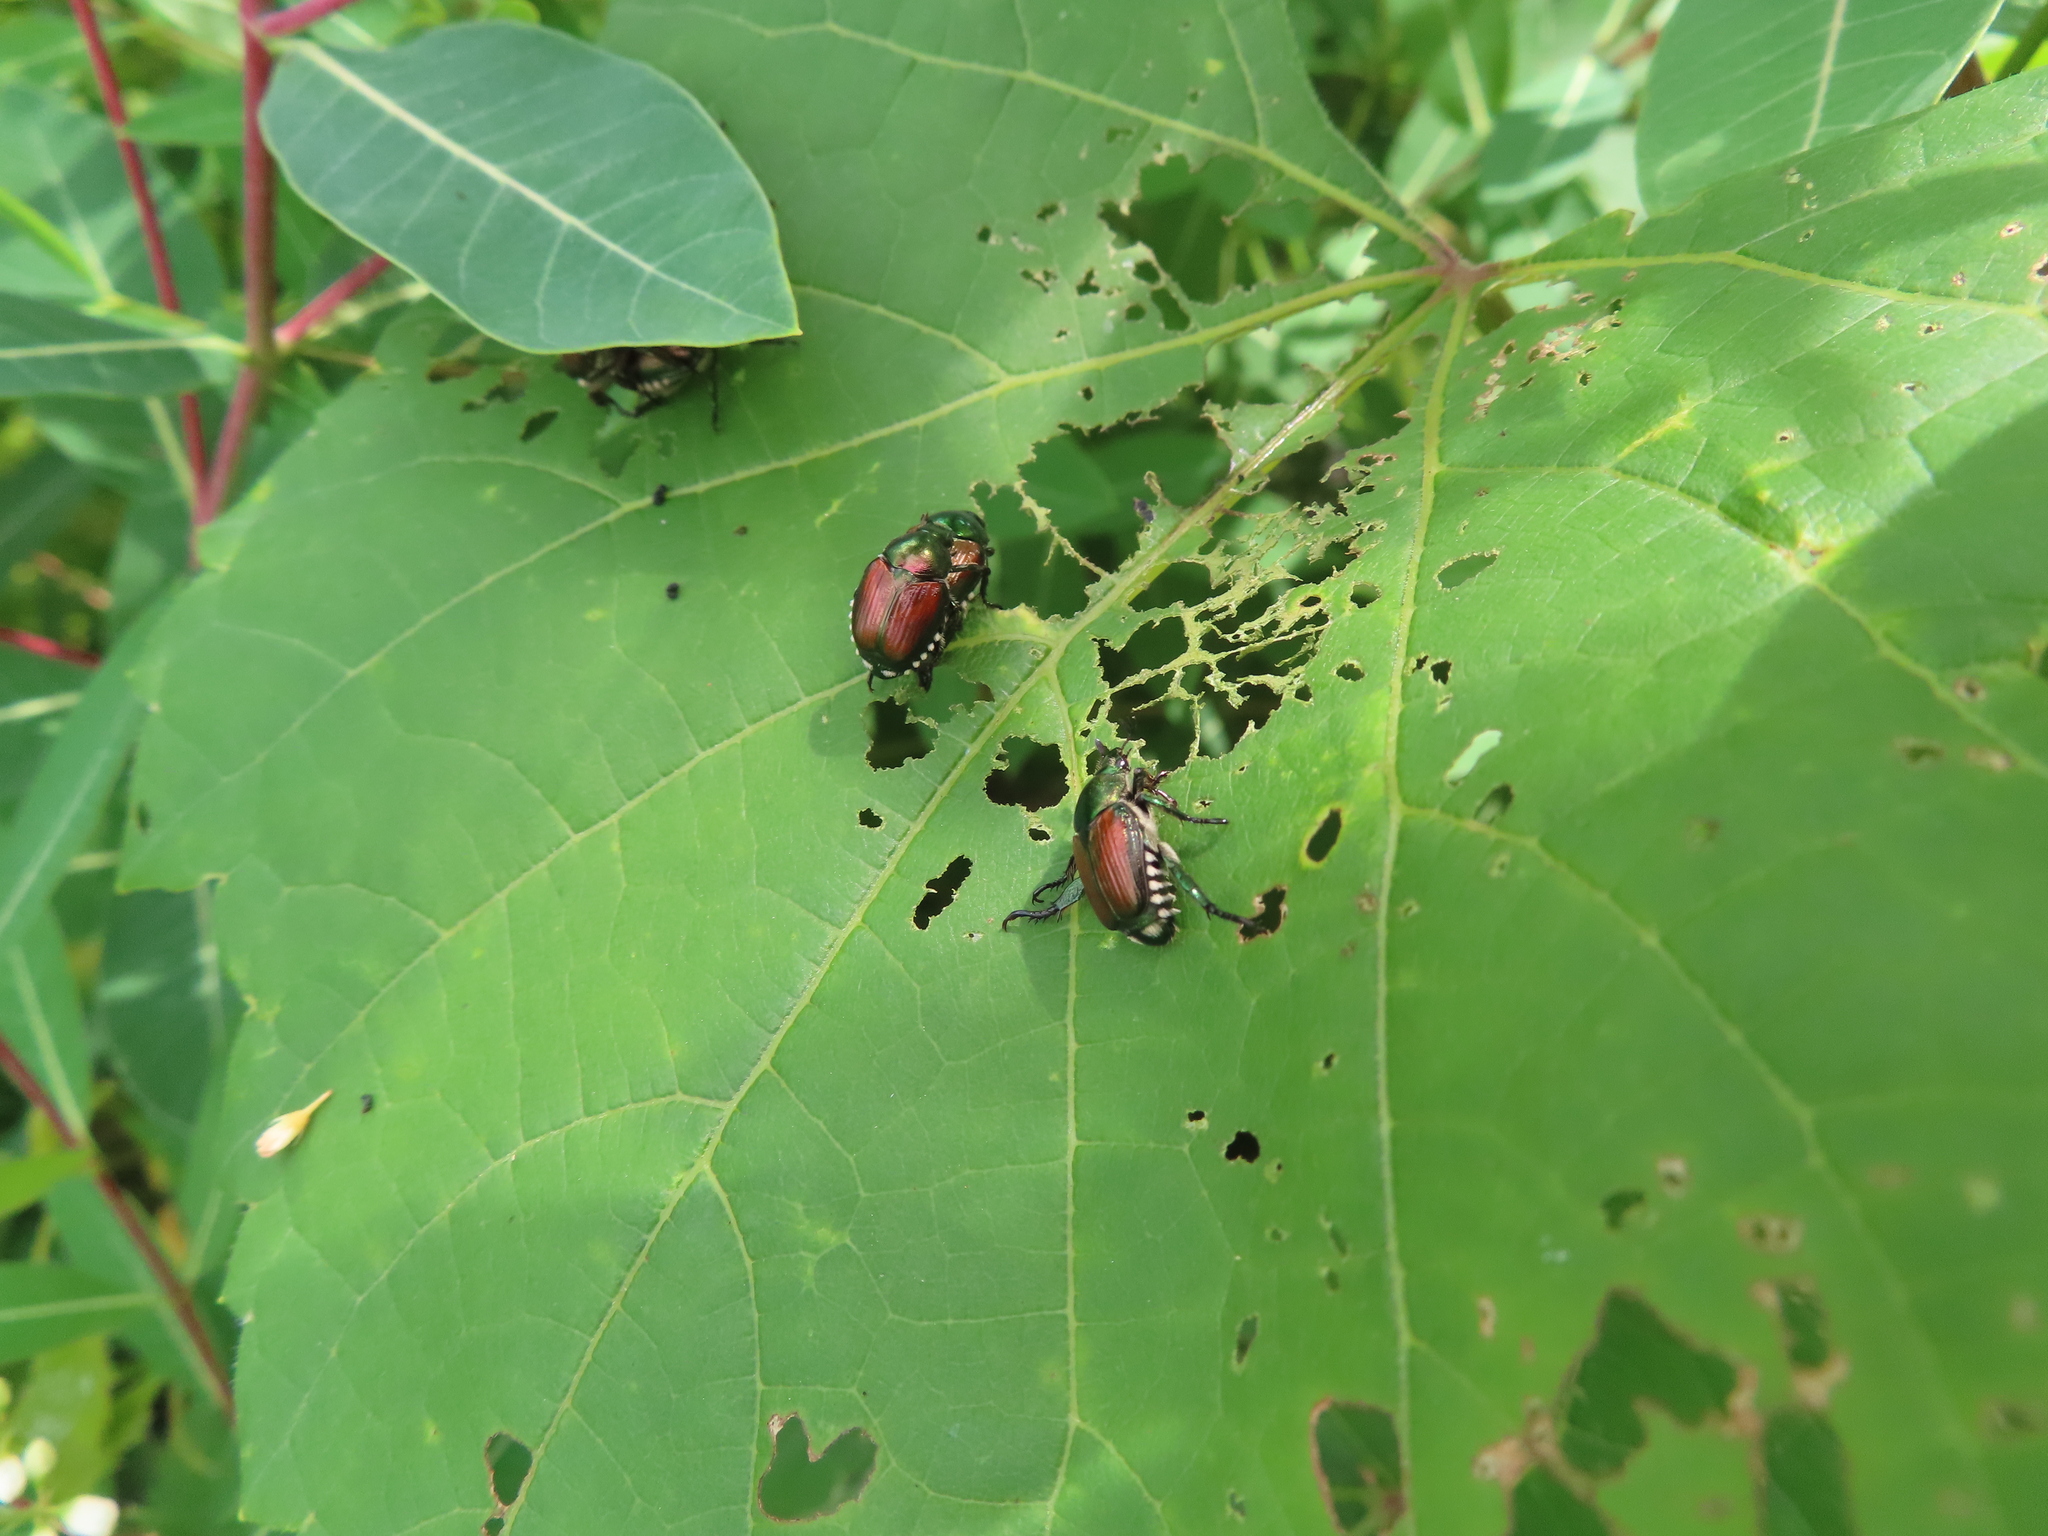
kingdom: Animalia
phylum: Arthropoda
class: Insecta
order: Coleoptera
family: Scarabaeidae
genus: Popillia
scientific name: Popillia japonica
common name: Japanese beetle
